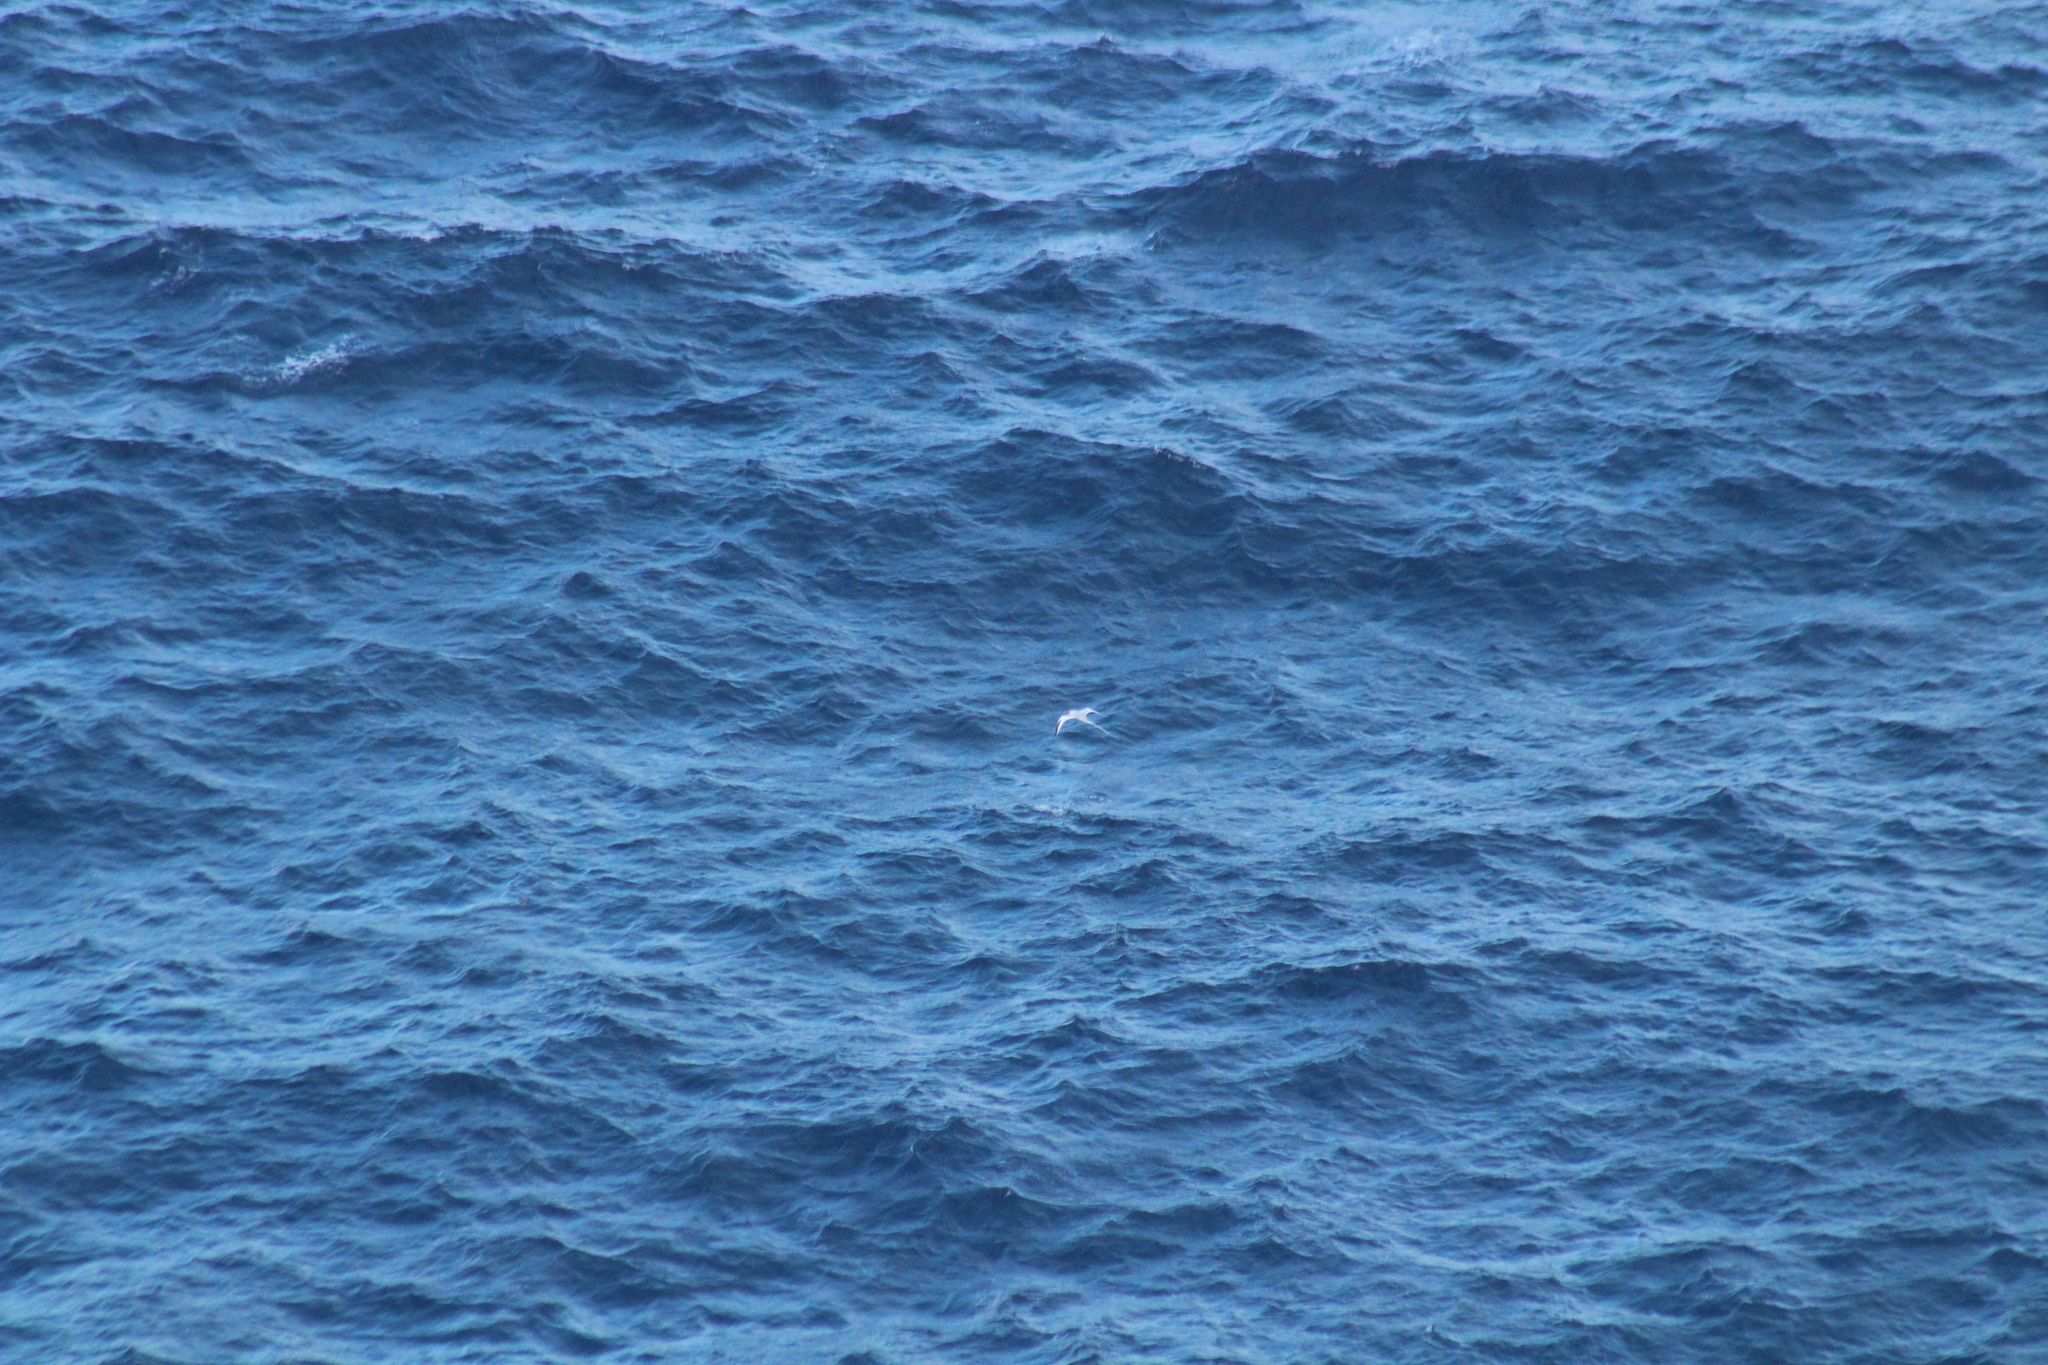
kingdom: Animalia
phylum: Chordata
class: Aves
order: Phaethontiformes
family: Phaethontidae
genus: Phaethon
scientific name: Phaethon aethereus
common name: Red-billed tropicbird
